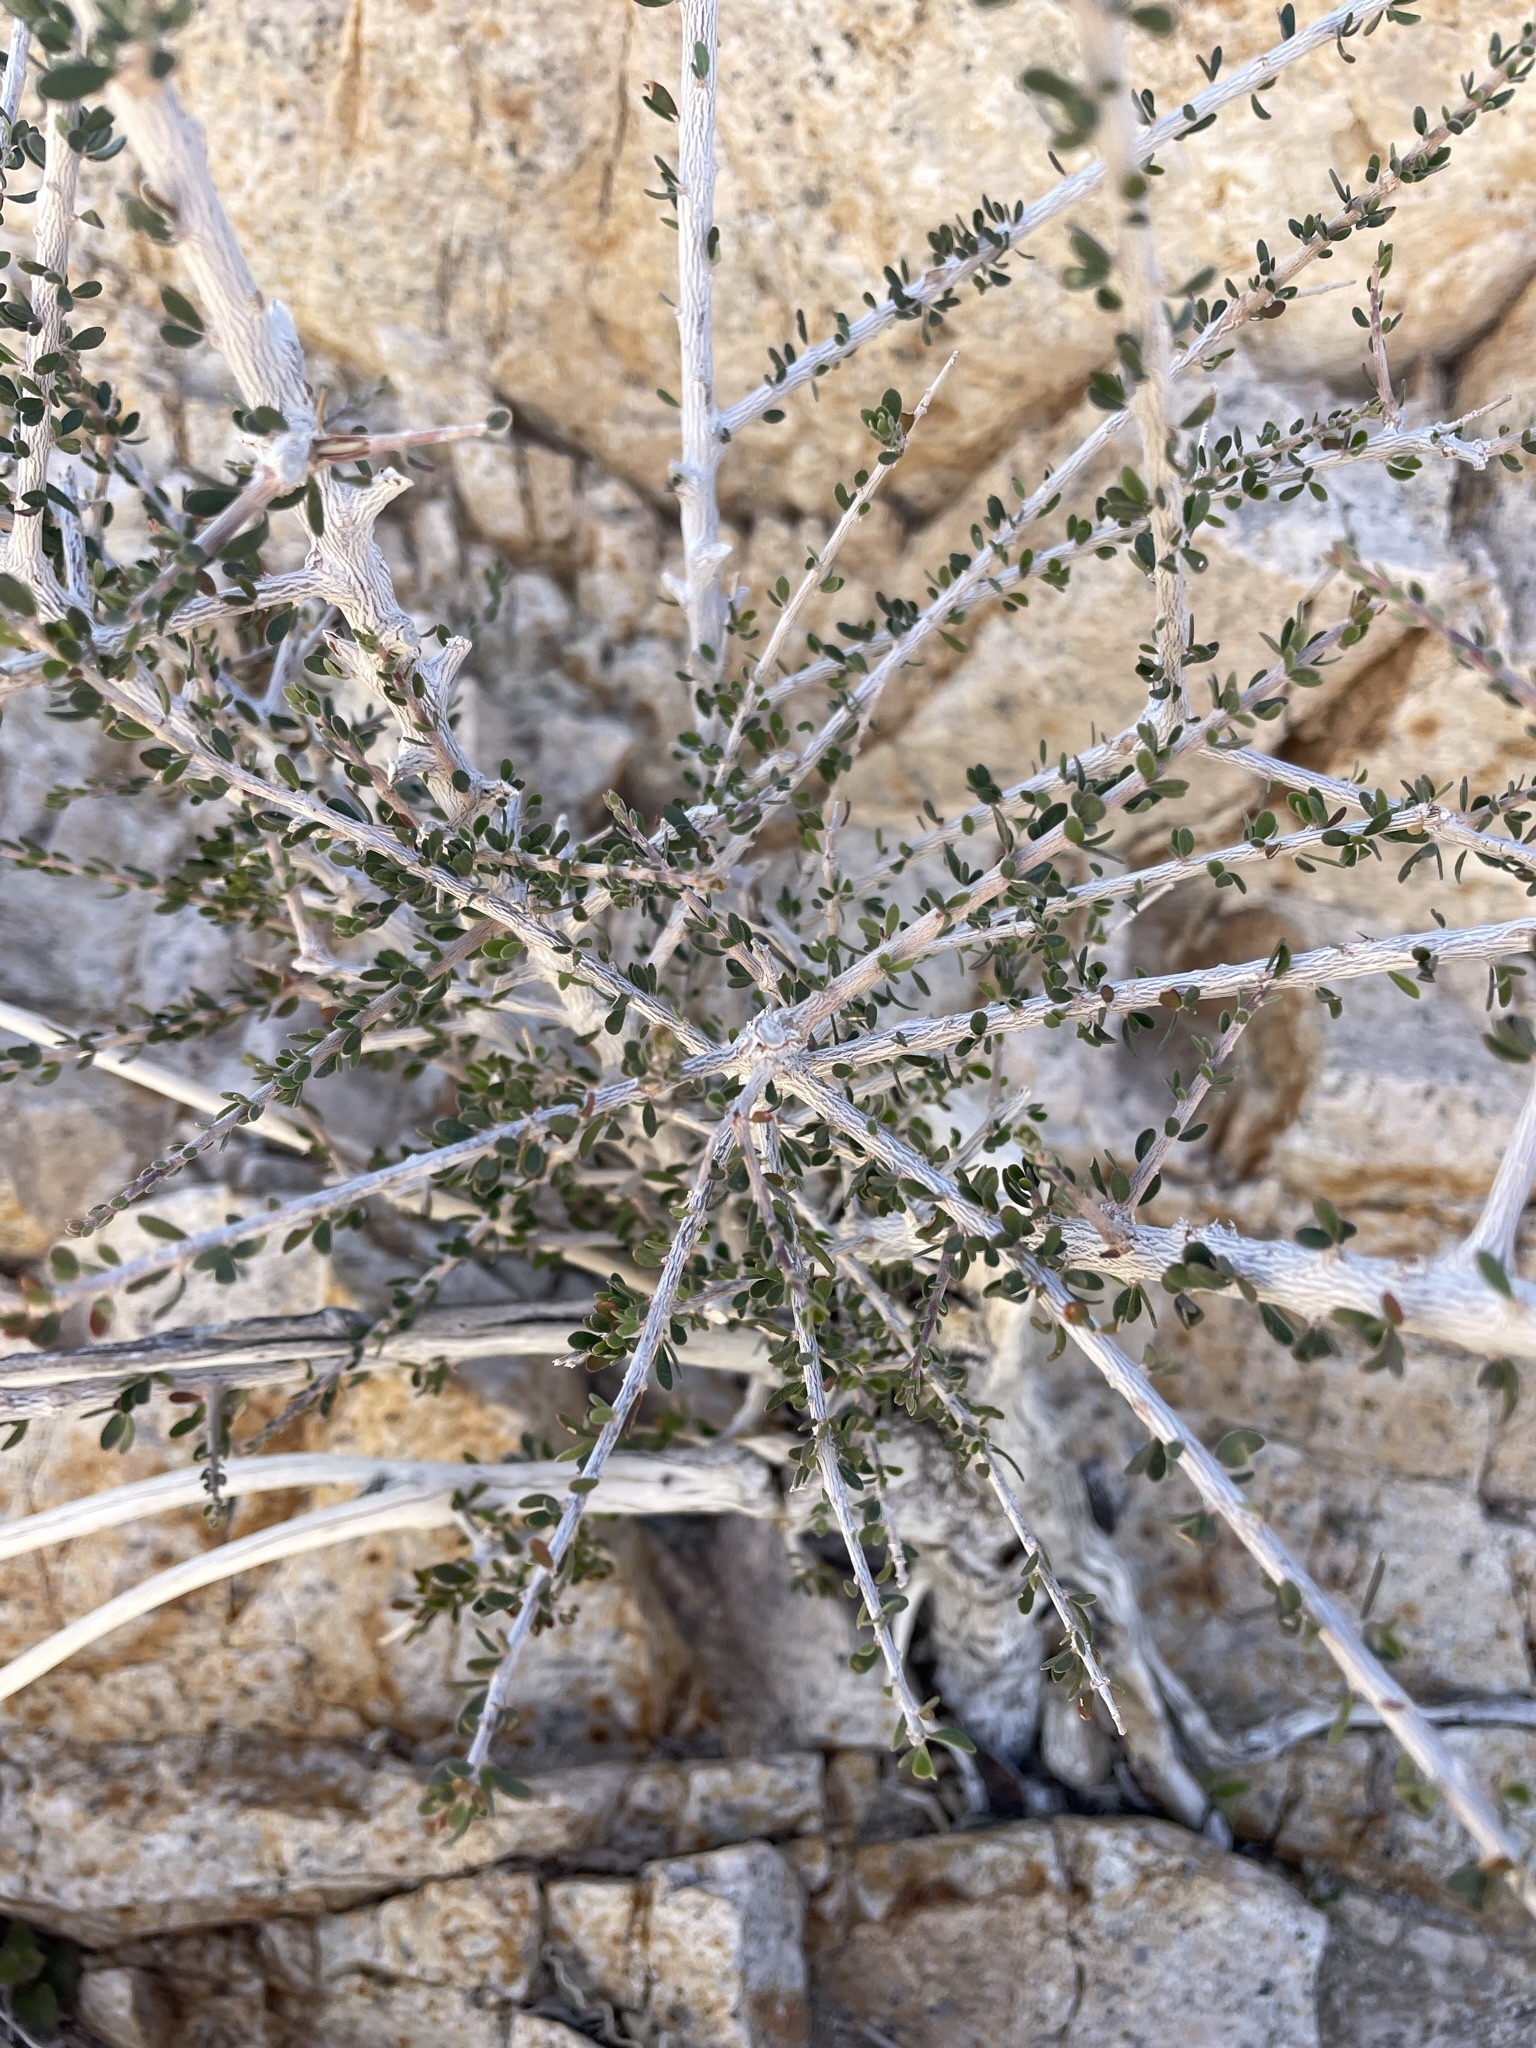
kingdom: Plantae
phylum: Tracheophyta
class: Magnoliopsida
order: Malpighiales
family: Picrodendraceae
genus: Tetracoccus
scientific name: Tetracoccus hallii
